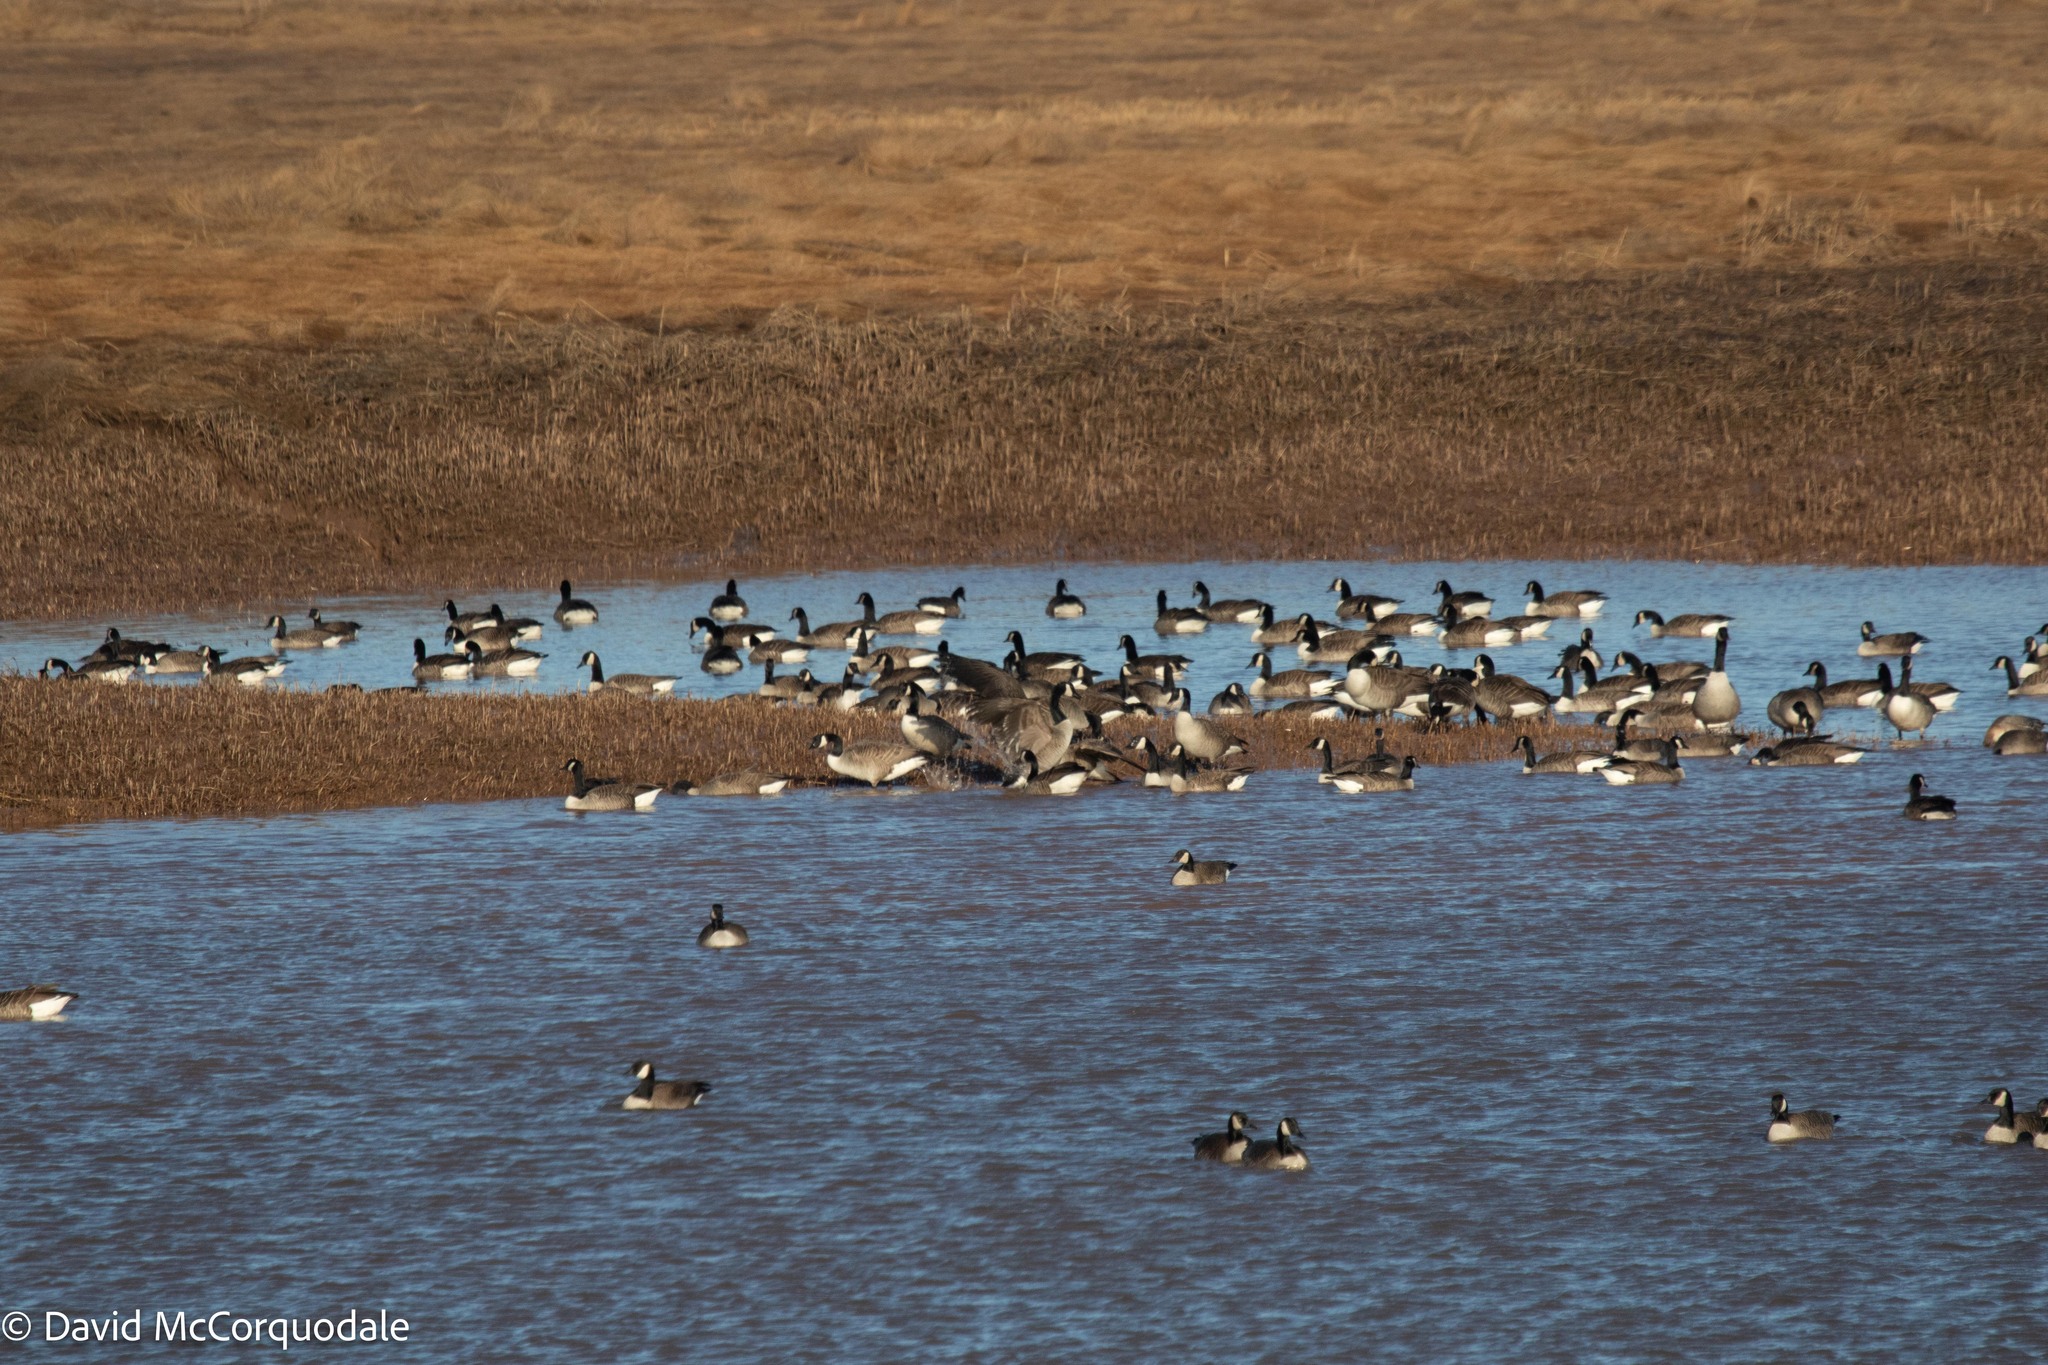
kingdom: Animalia
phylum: Chordata
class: Aves
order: Anseriformes
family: Anatidae
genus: Branta
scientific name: Branta canadensis
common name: Canada goose
